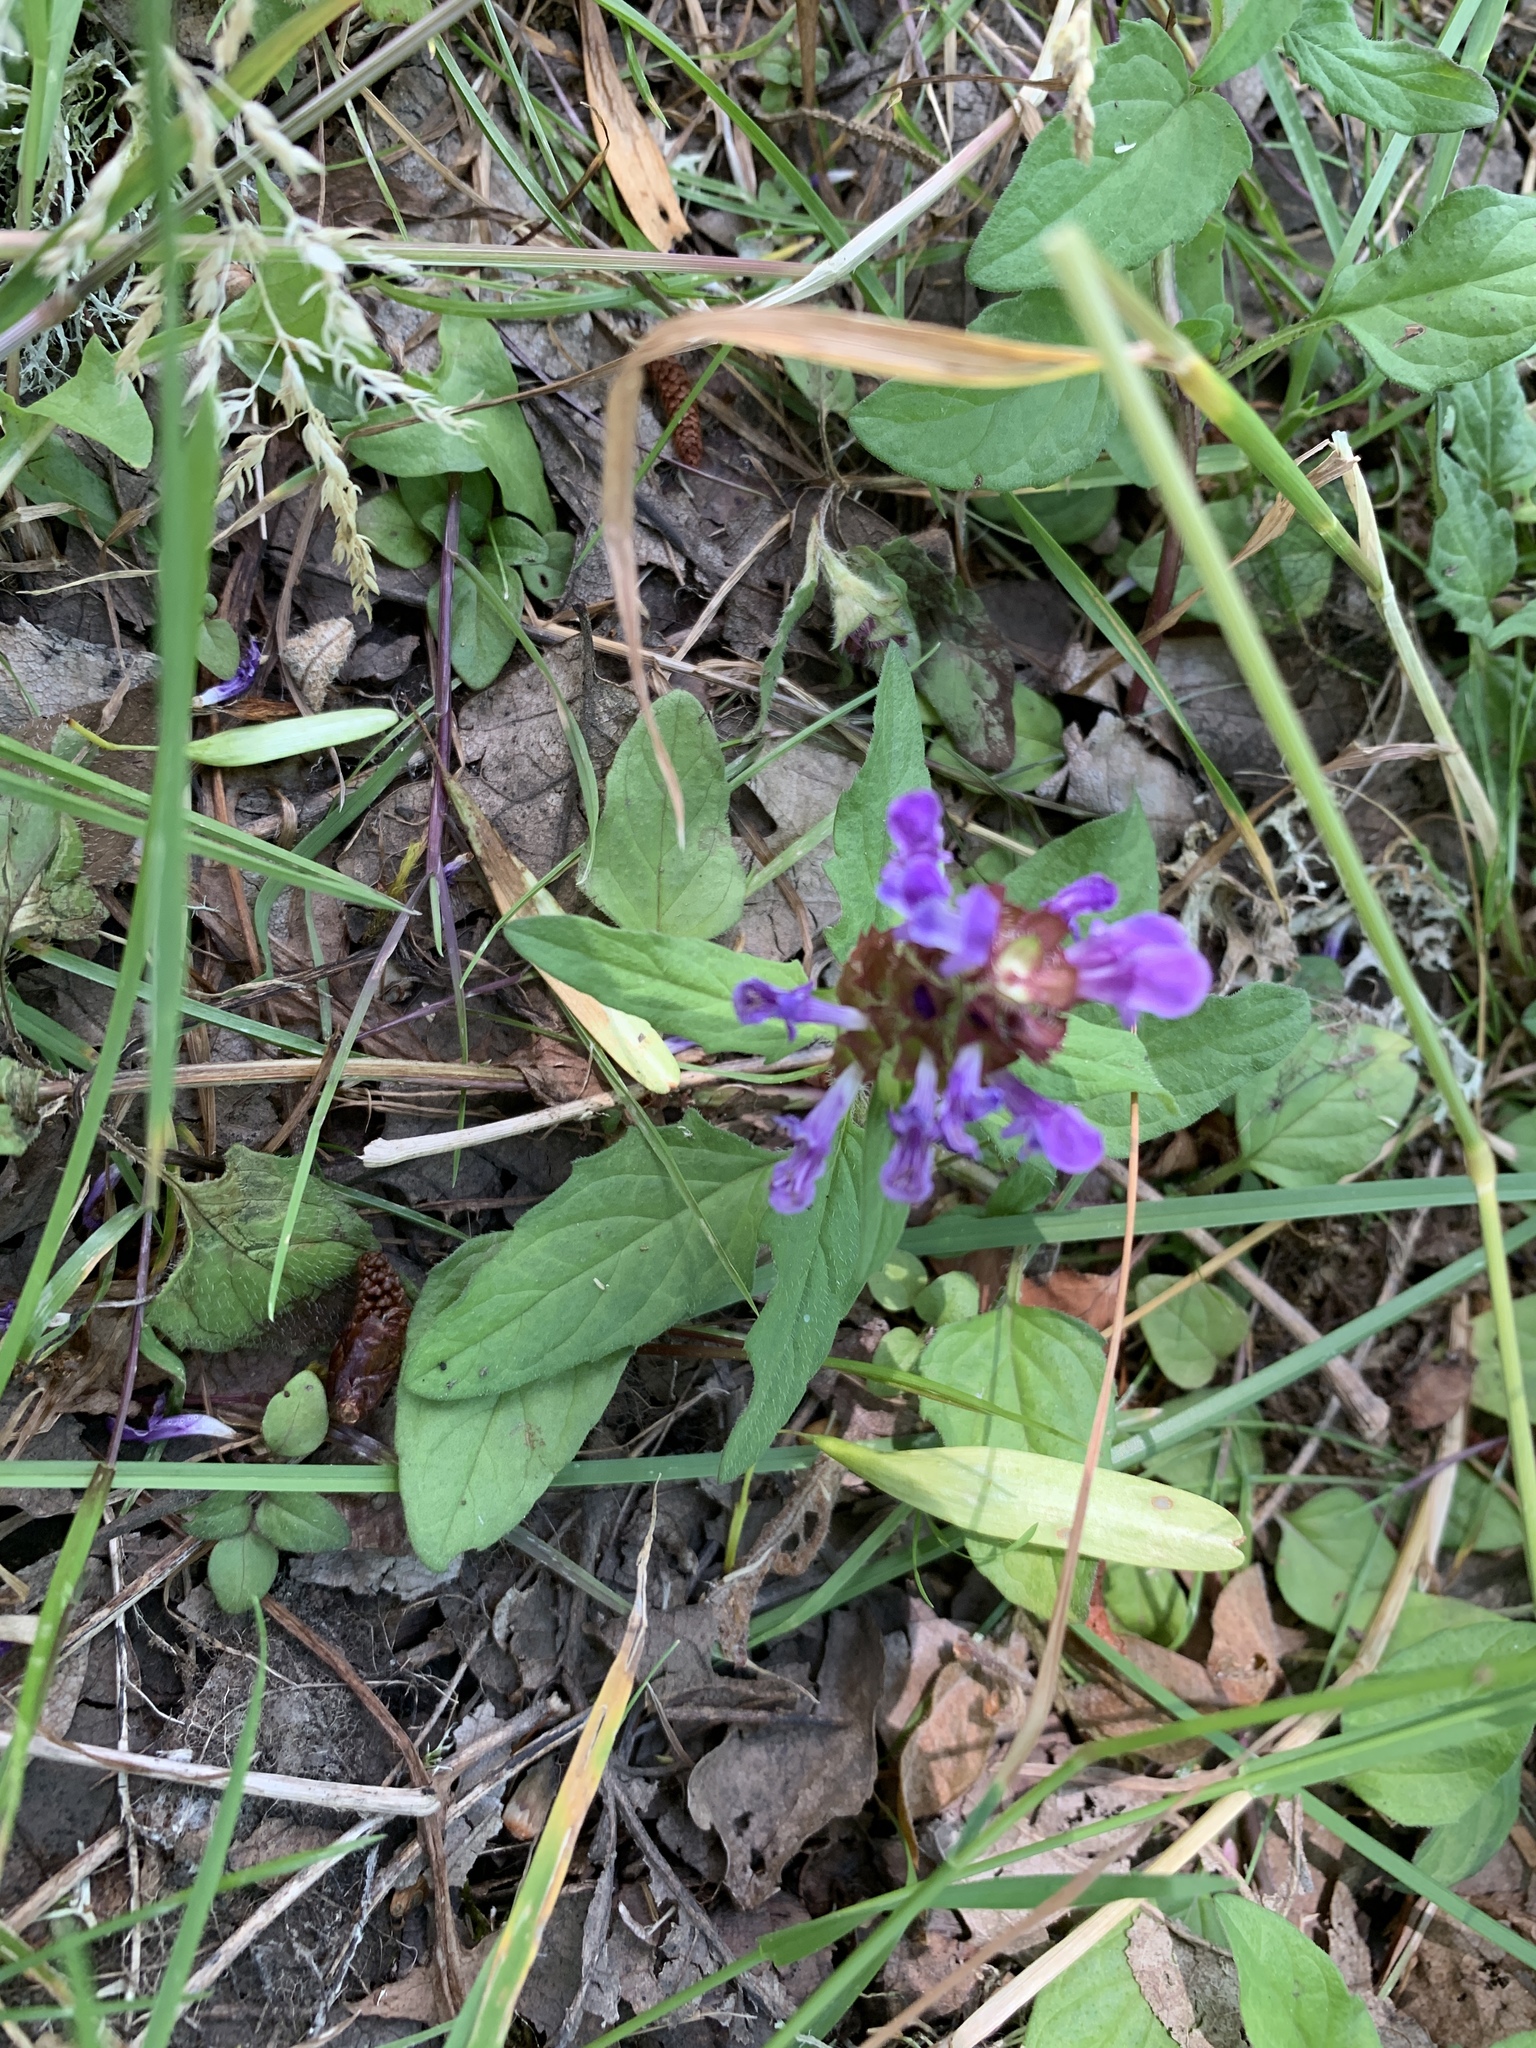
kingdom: Plantae
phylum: Tracheophyta
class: Magnoliopsida
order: Lamiales
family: Lamiaceae
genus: Prunella
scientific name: Prunella vulgaris
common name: Heal-all
